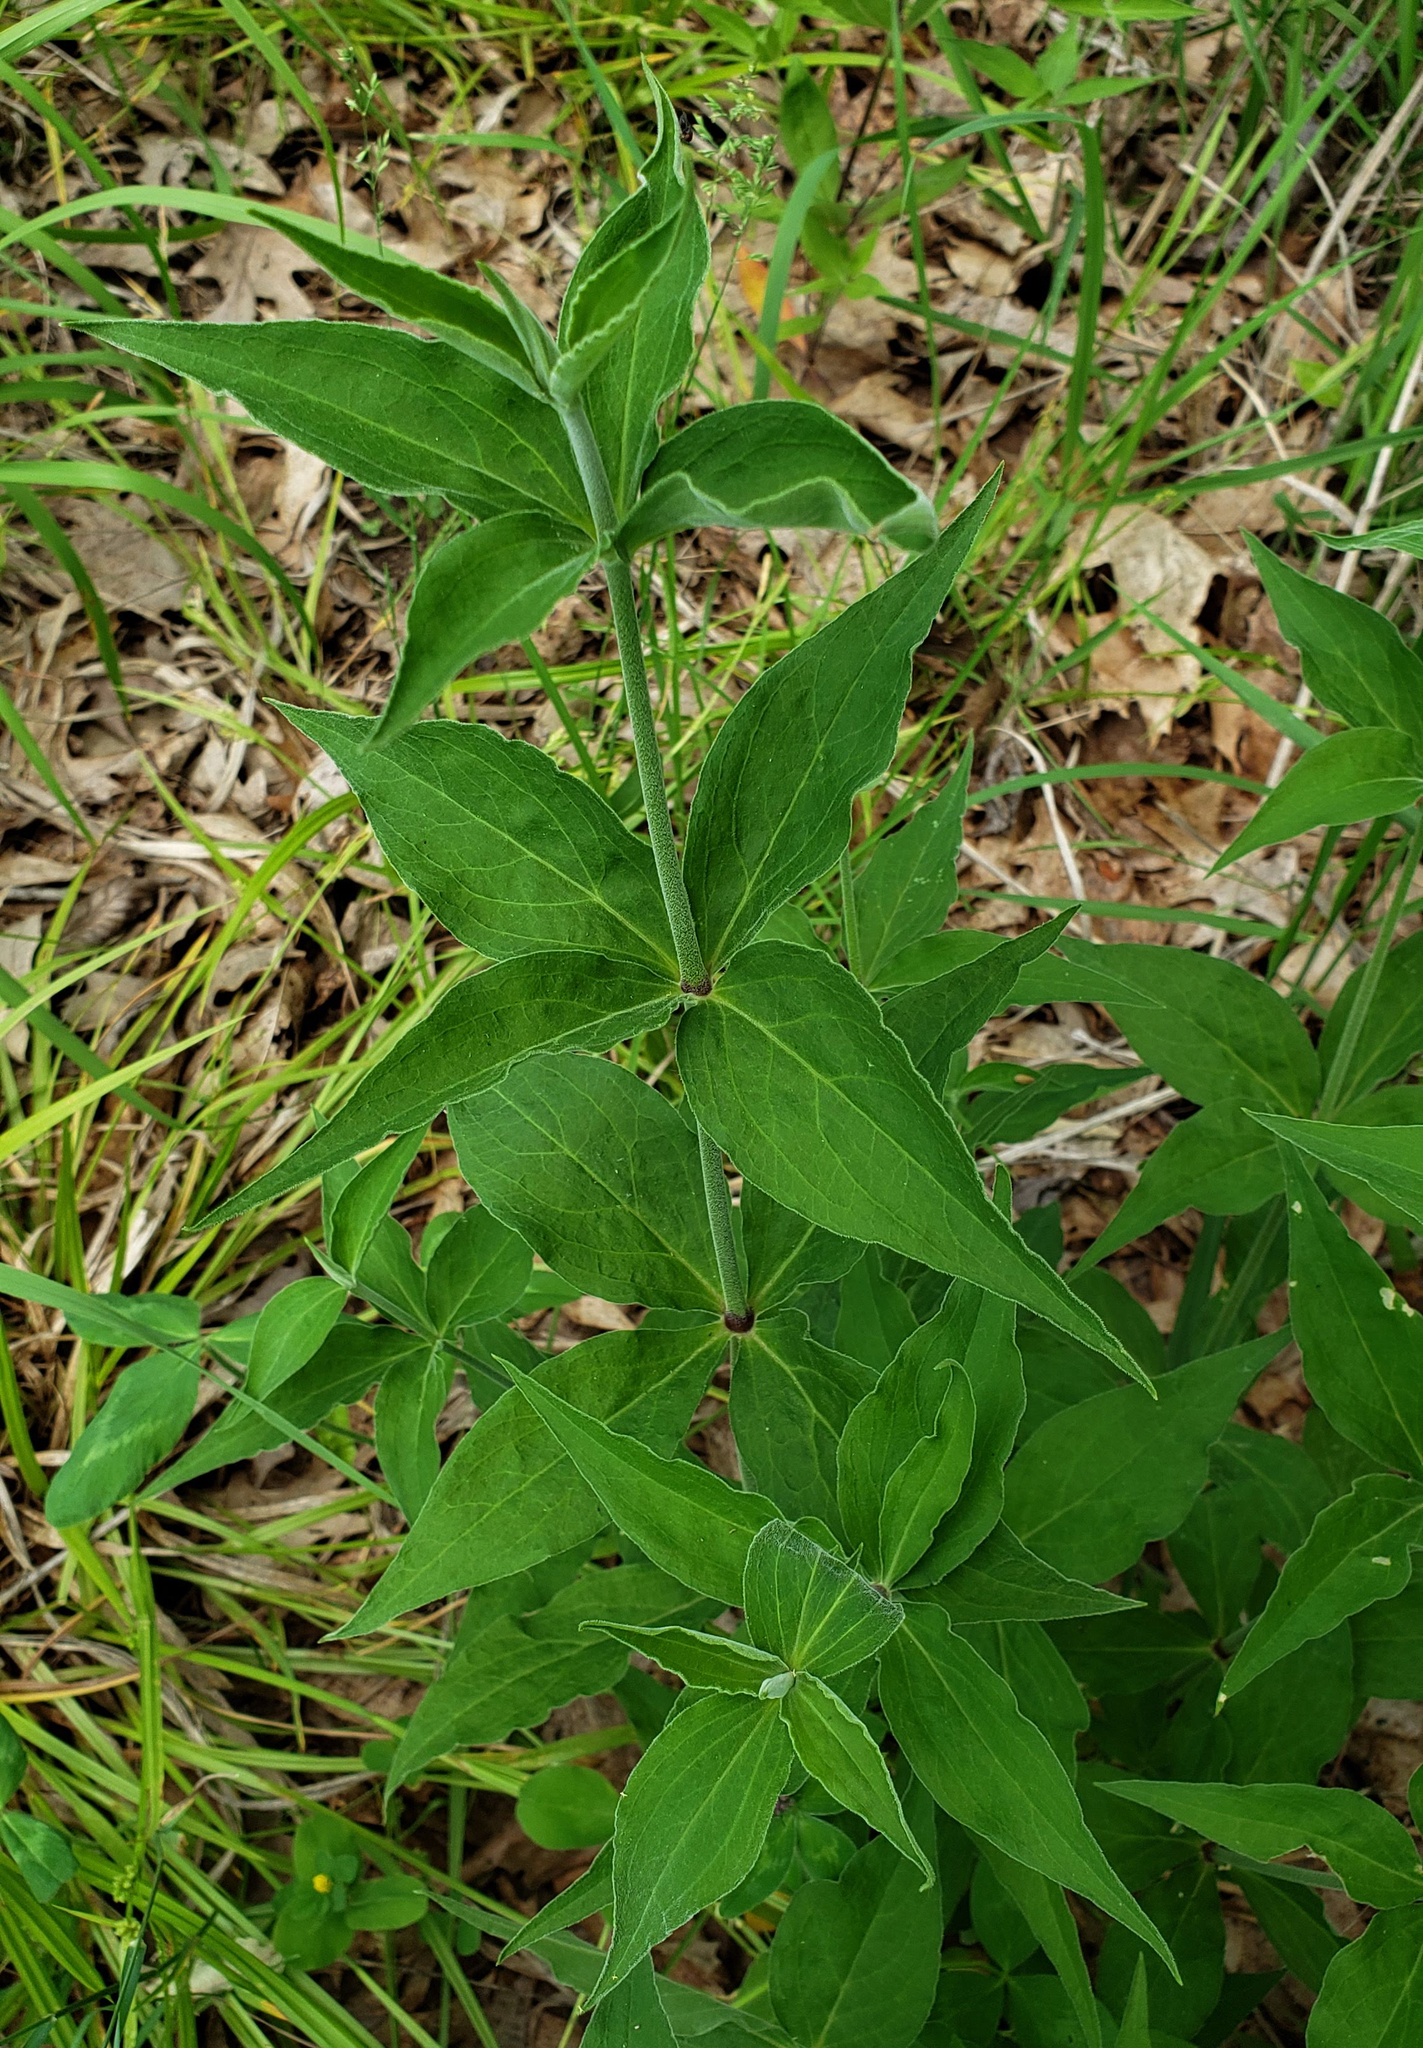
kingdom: Plantae
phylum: Tracheophyta
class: Magnoliopsida
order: Caryophyllales
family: Caryophyllaceae
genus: Silene
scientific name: Silene stellata
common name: Starry campion
